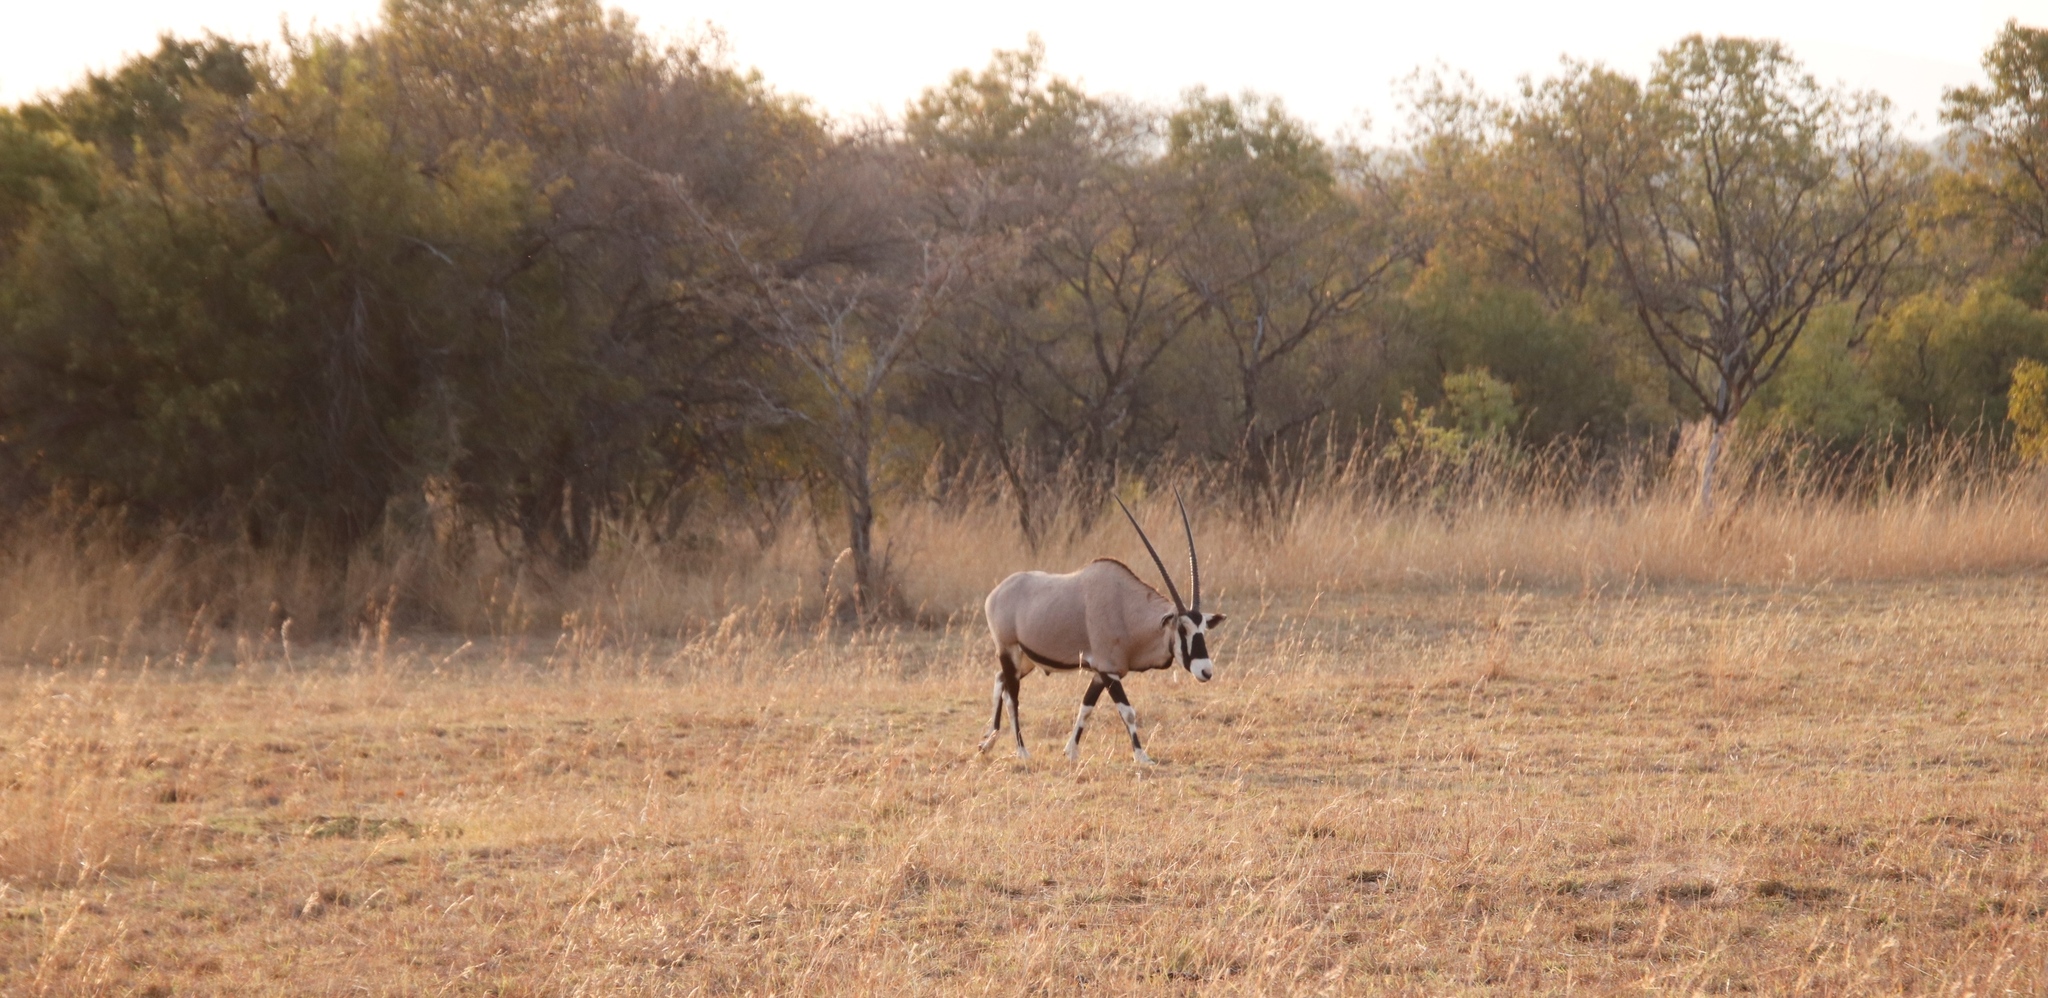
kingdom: Animalia
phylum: Chordata
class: Mammalia
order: Artiodactyla
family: Bovidae
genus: Oryx
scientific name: Oryx gazella
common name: Gemsbok
